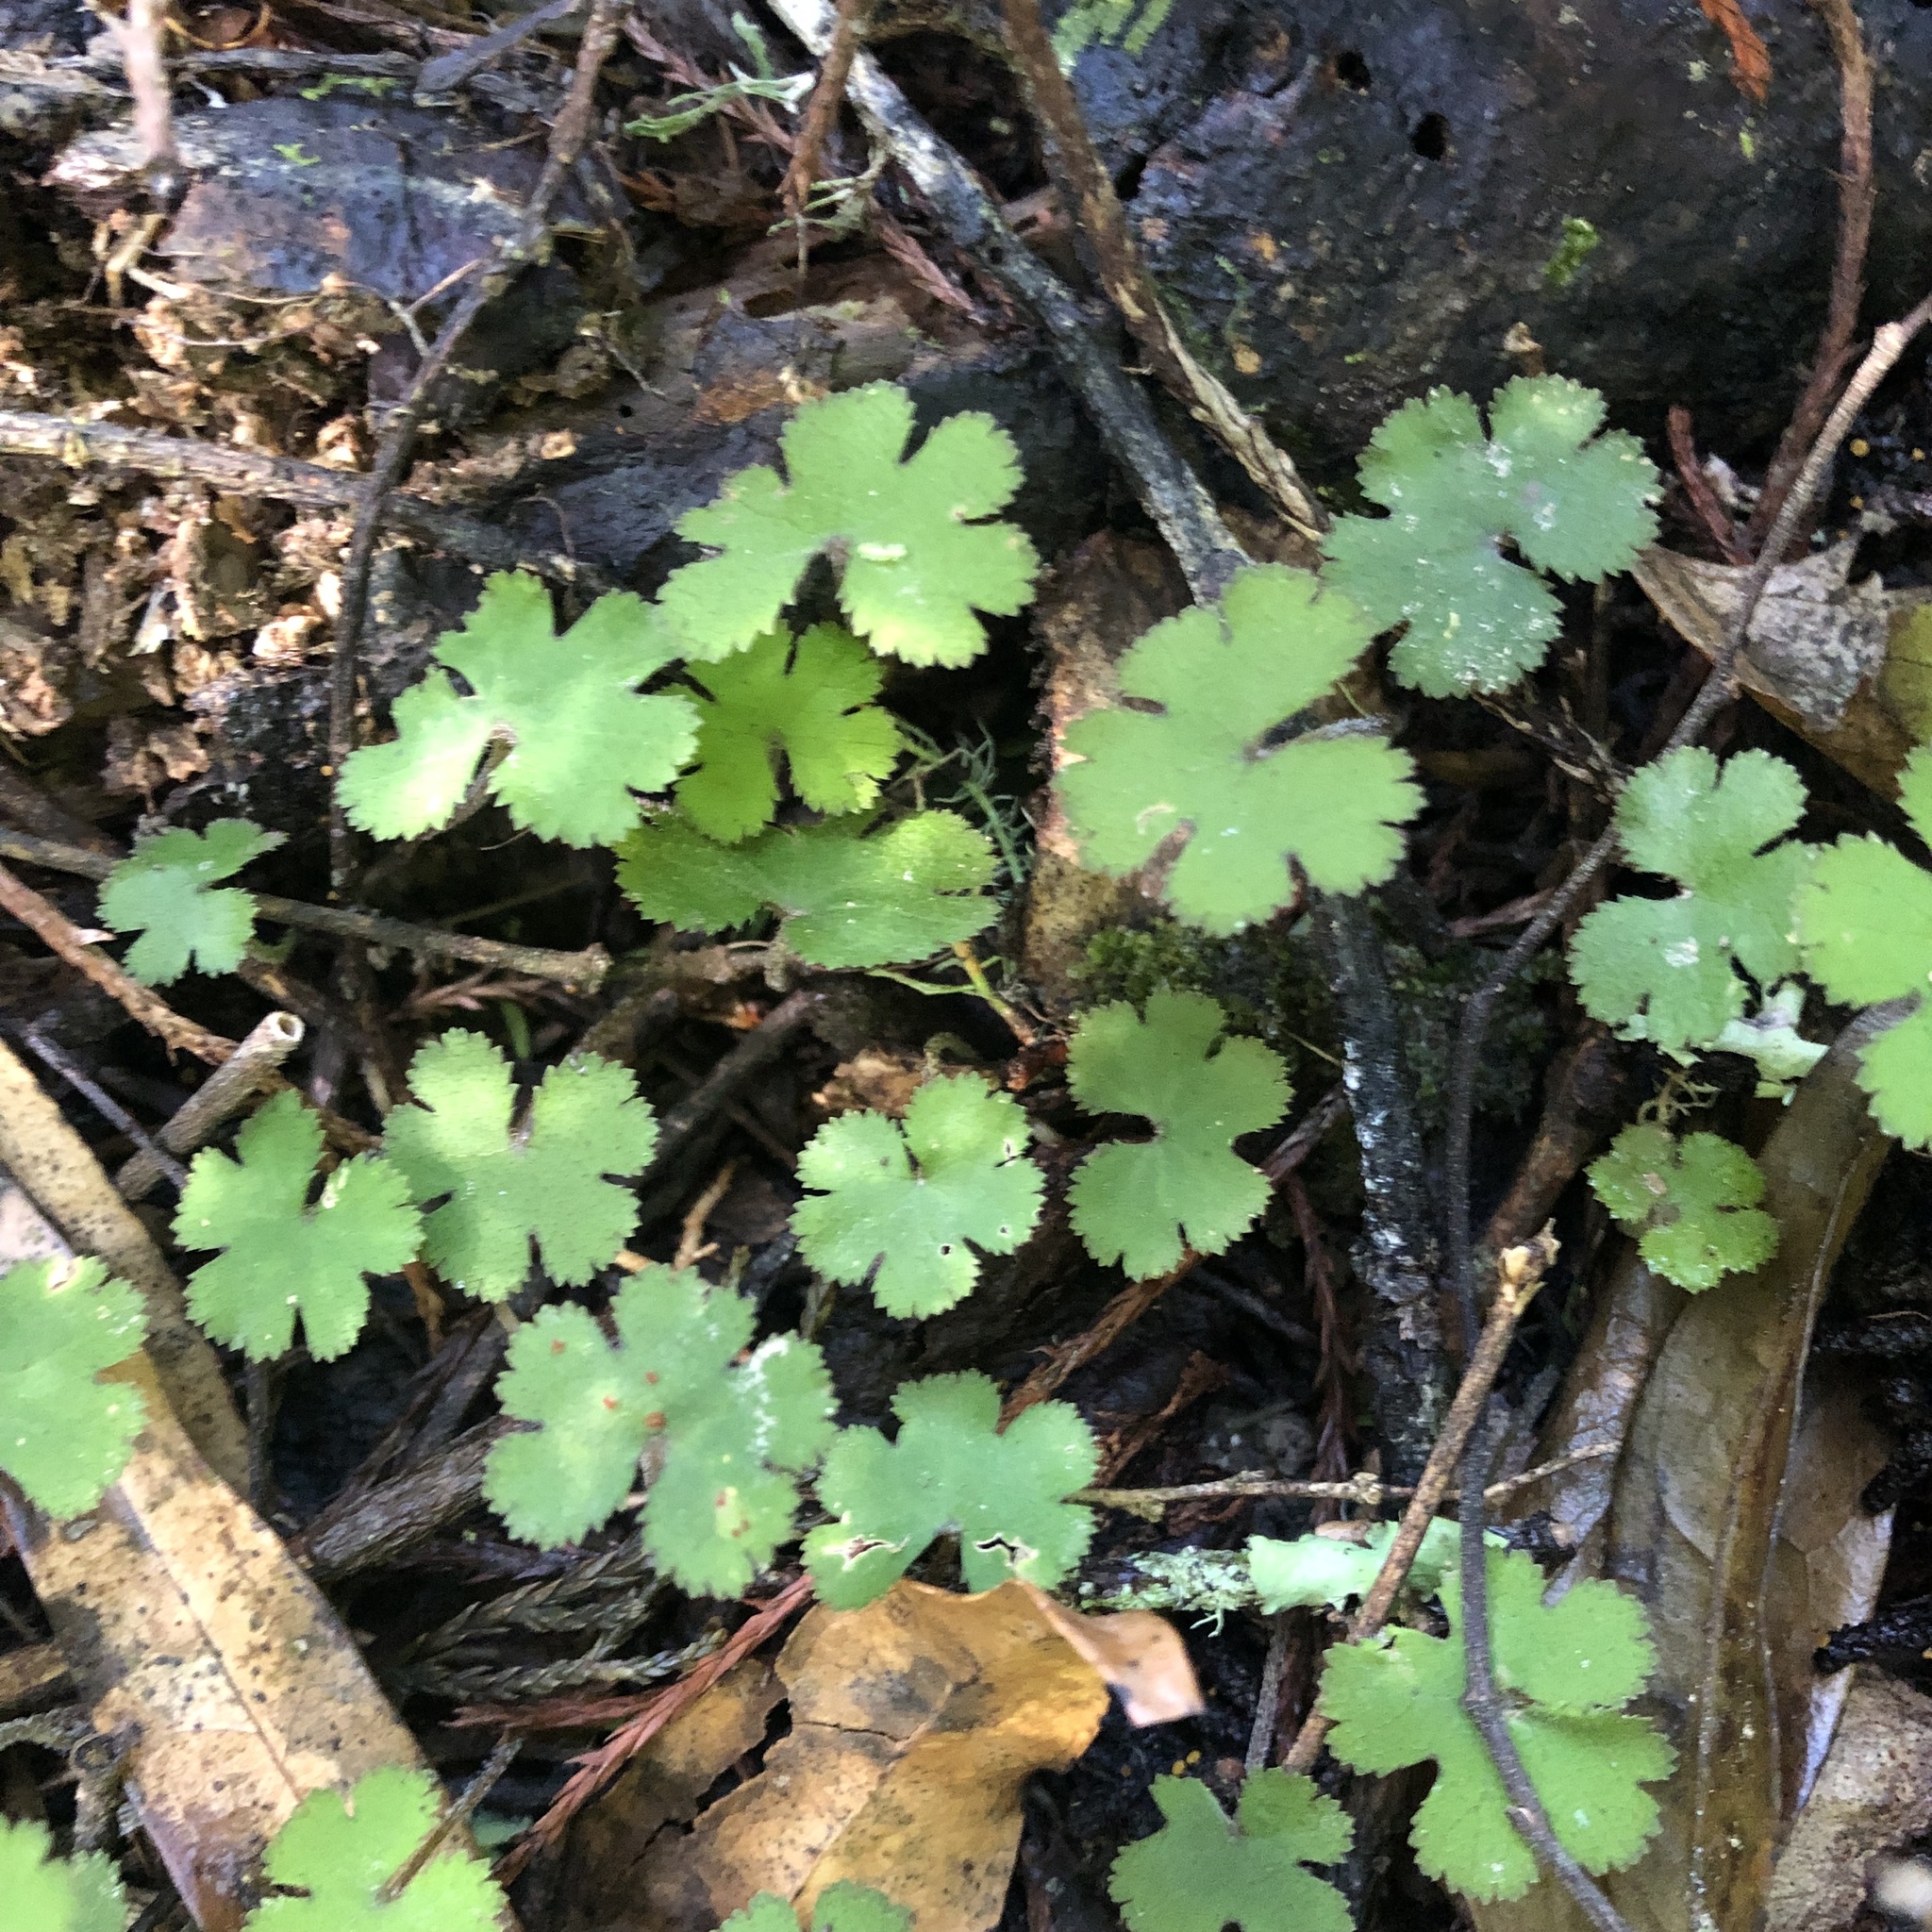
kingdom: Plantae
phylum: Tracheophyta
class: Magnoliopsida
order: Apiales
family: Araliaceae
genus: Hydrocotyle
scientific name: Hydrocotyle elongata
